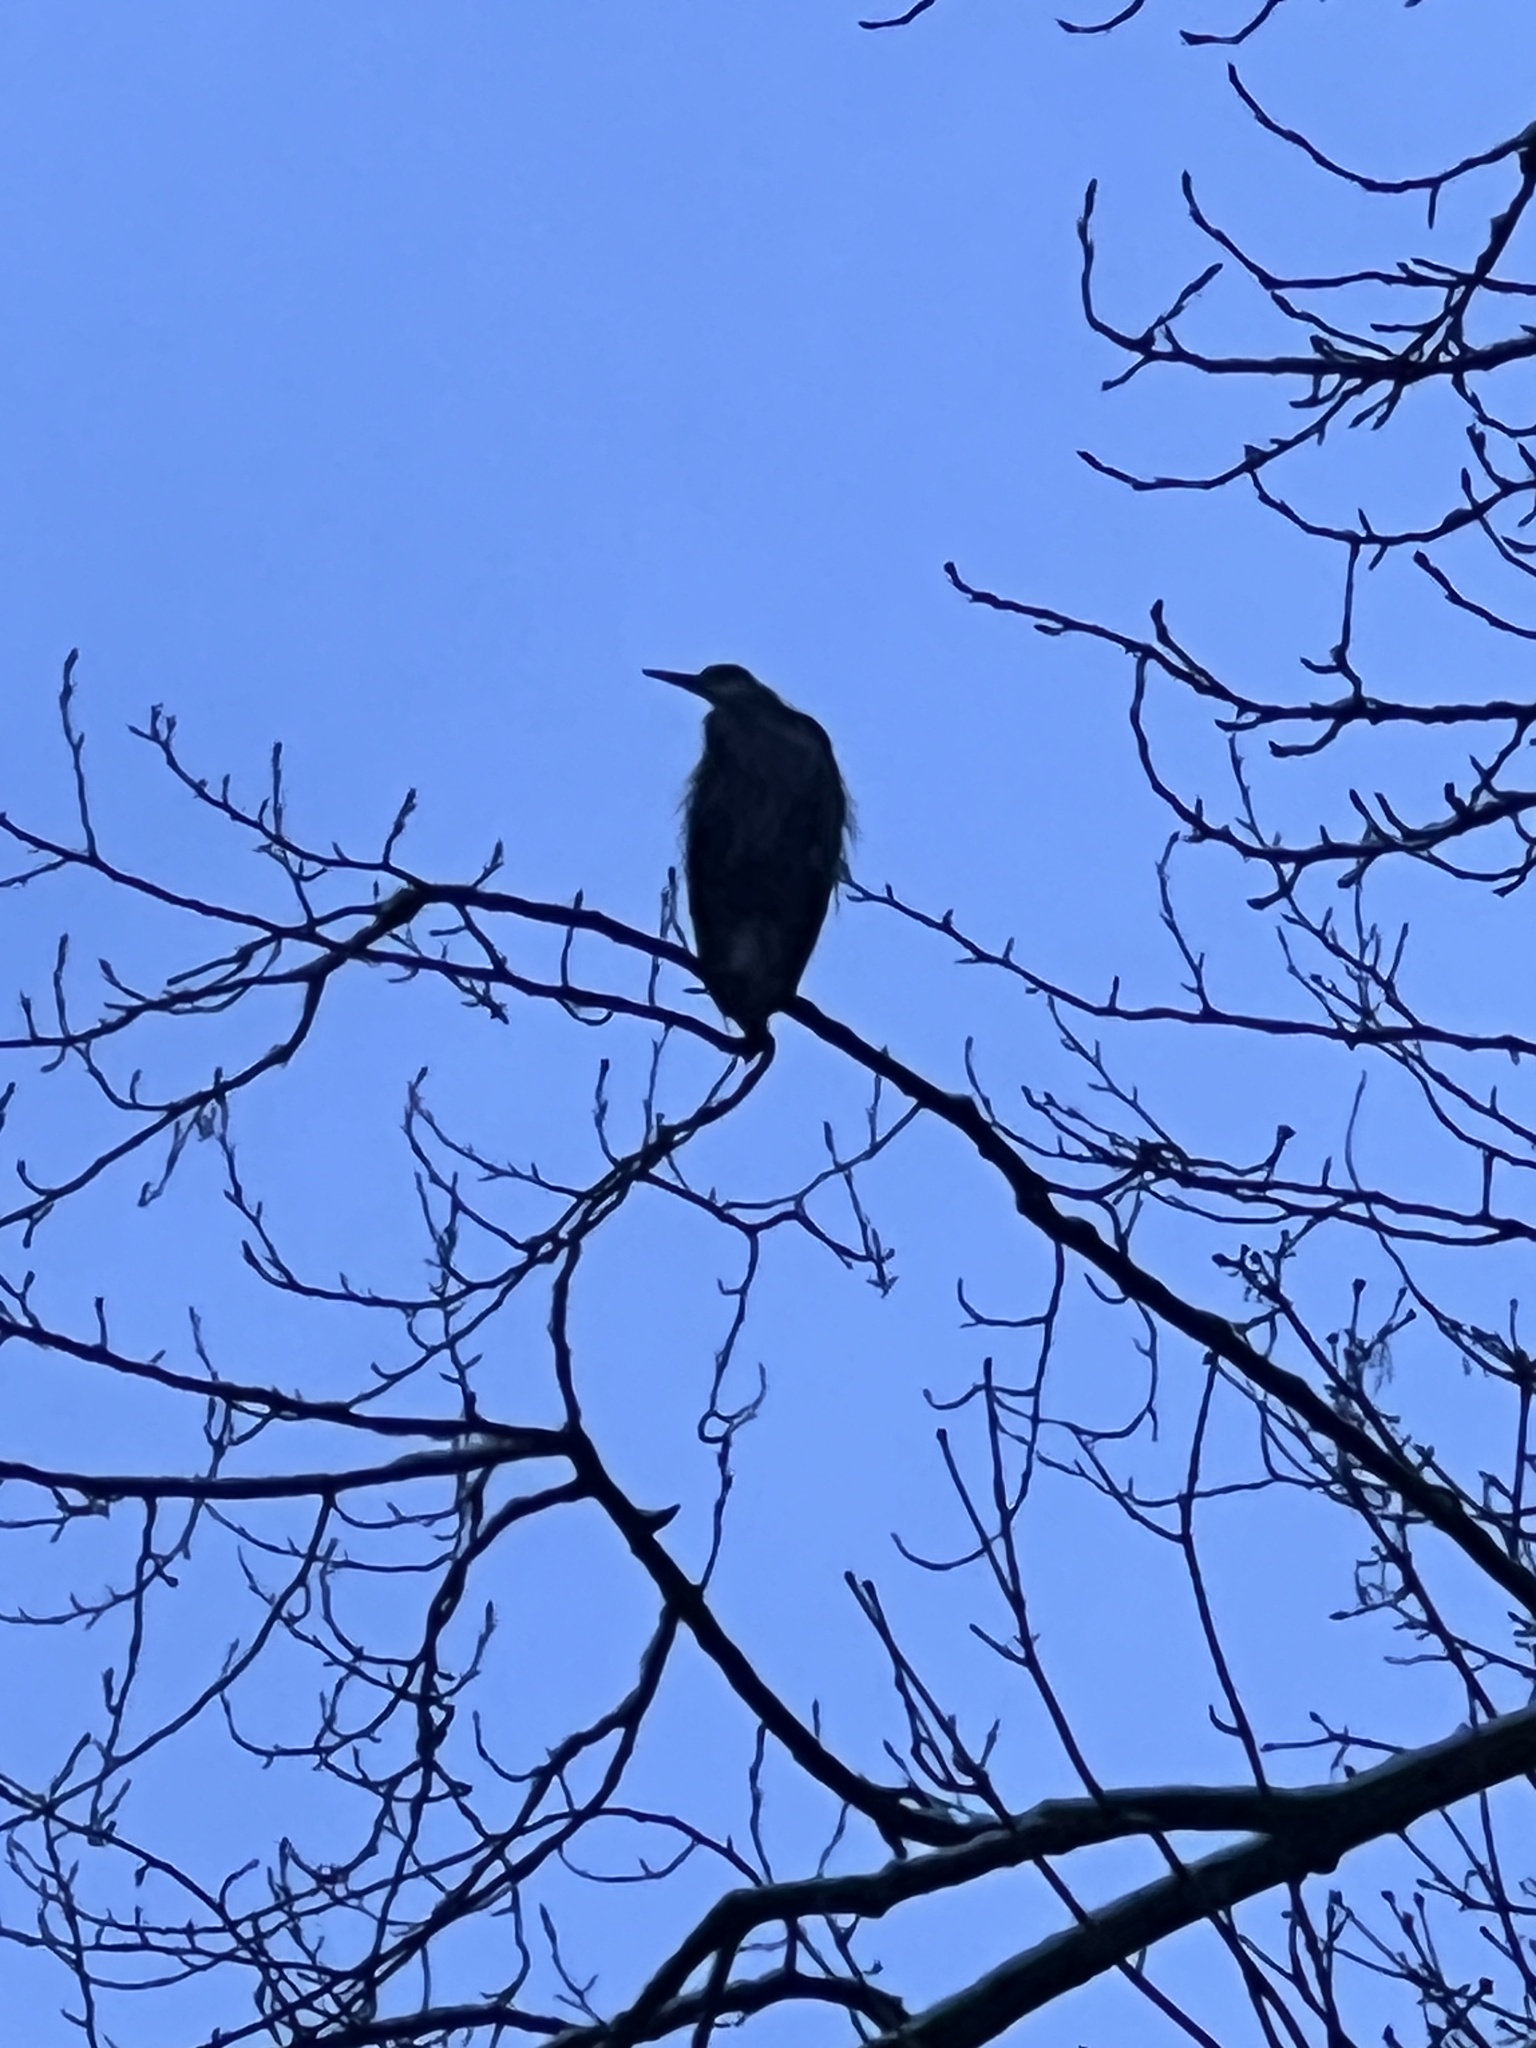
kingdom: Animalia
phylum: Chordata
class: Aves
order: Pelecaniformes
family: Ardeidae
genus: Ardea
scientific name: Ardea herodias
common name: Great blue heron
